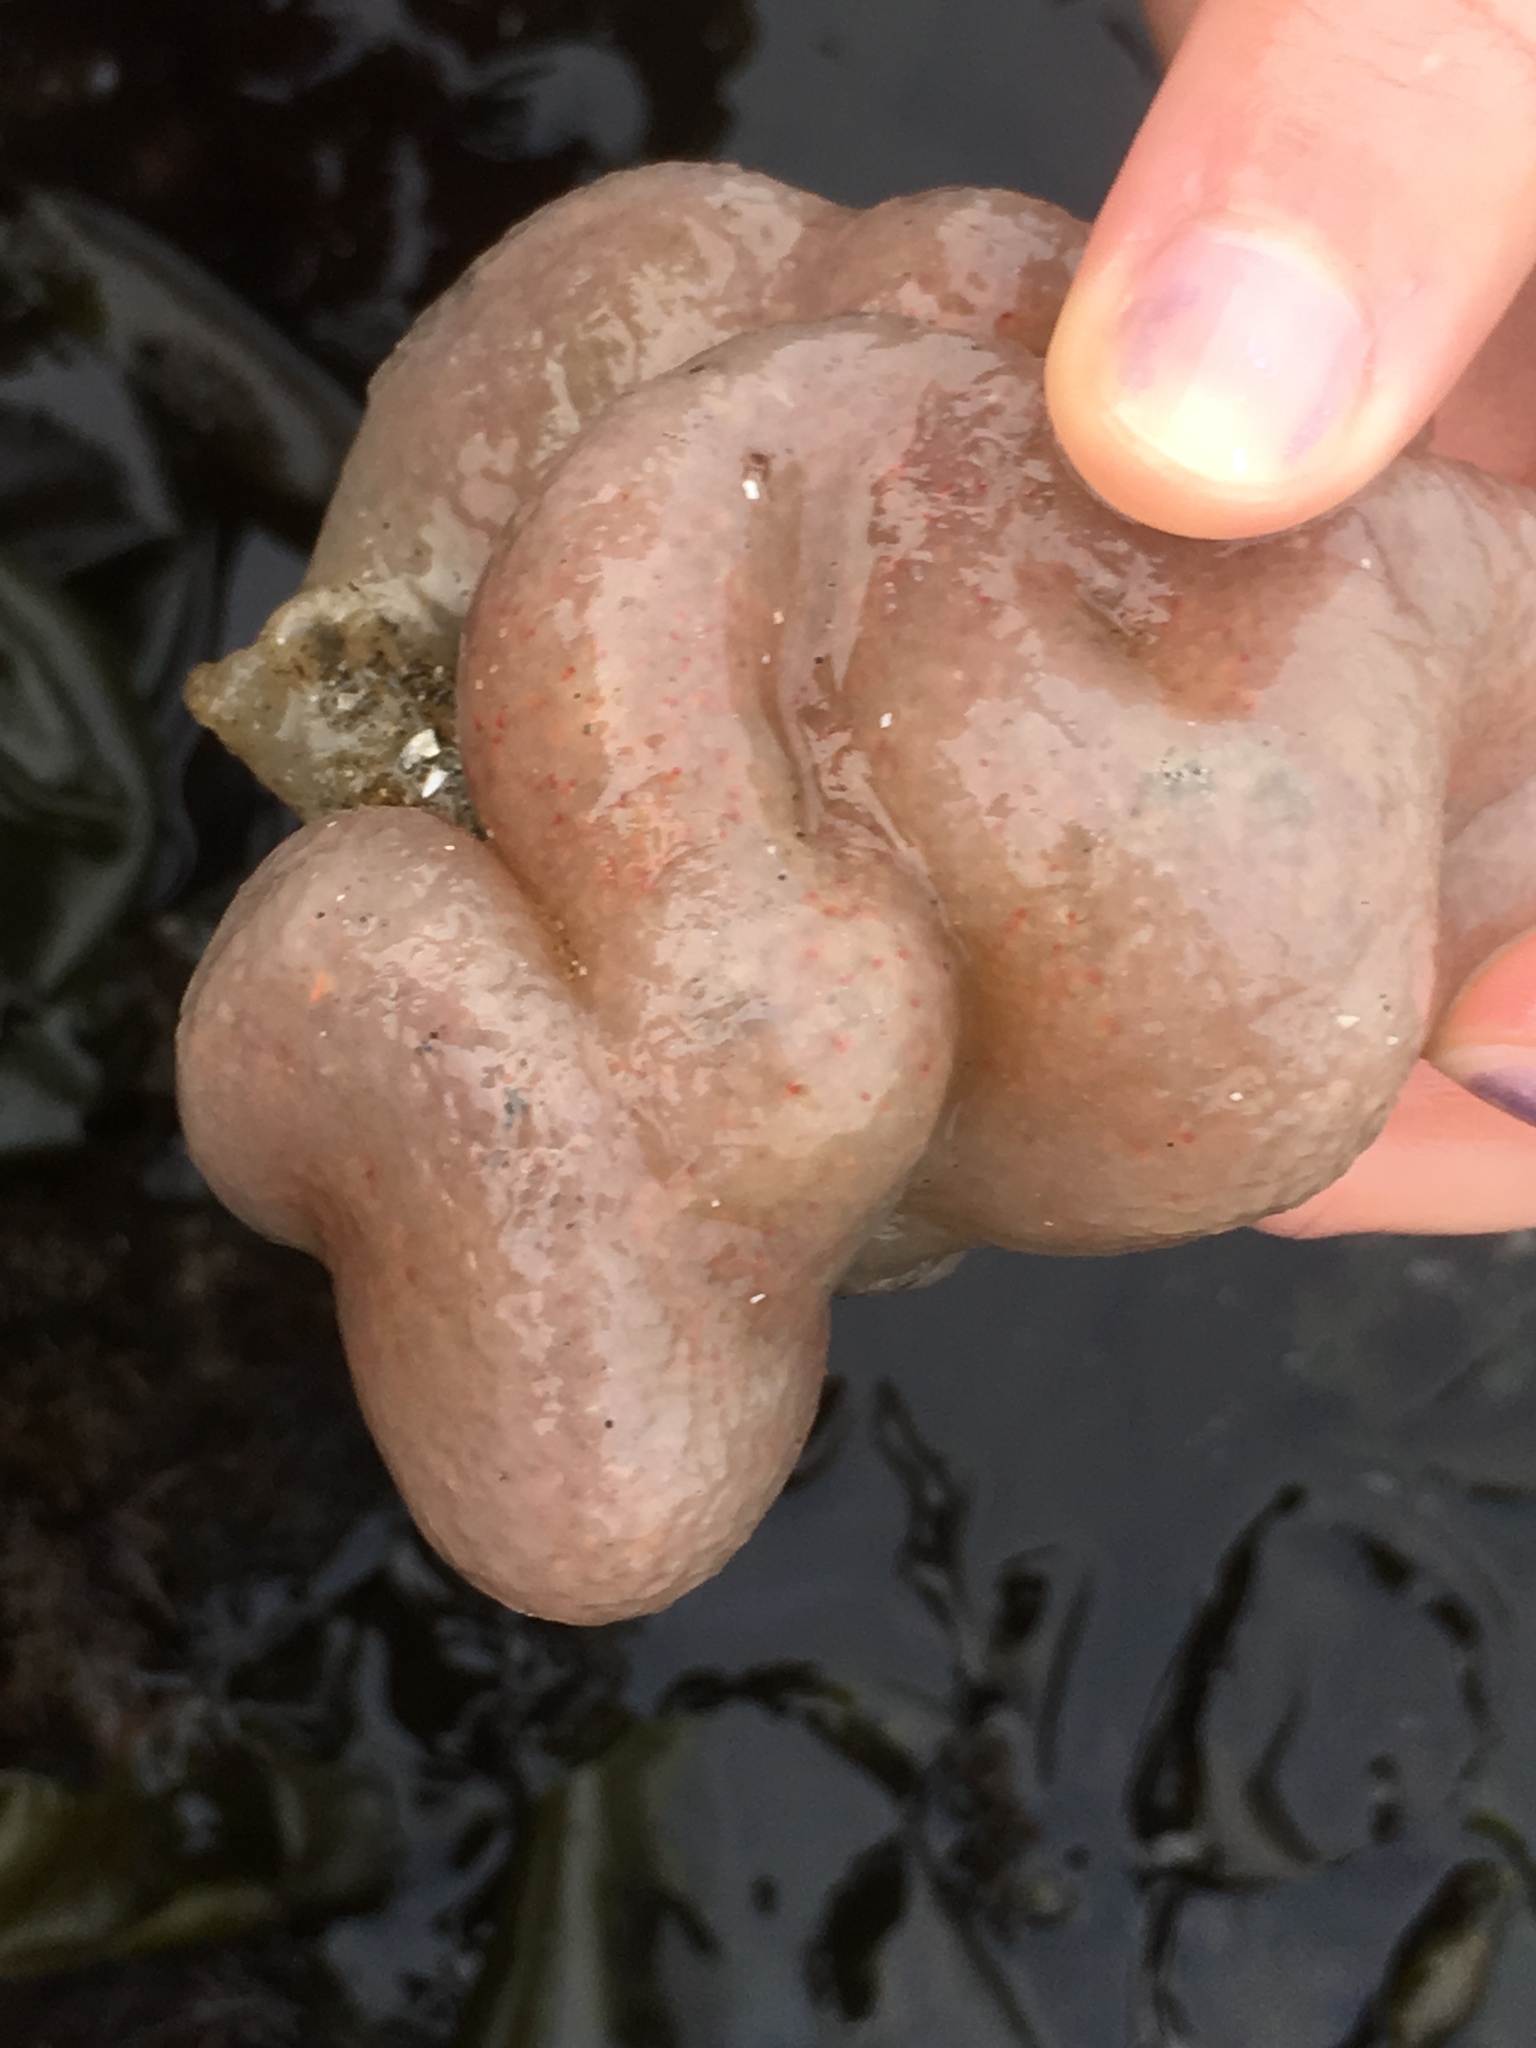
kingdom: Animalia
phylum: Chordata
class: Ascidiacea
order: Aplousobranchia
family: Polyclinidae
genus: Aplidium
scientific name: Aplidium californicum
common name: Sea pork
